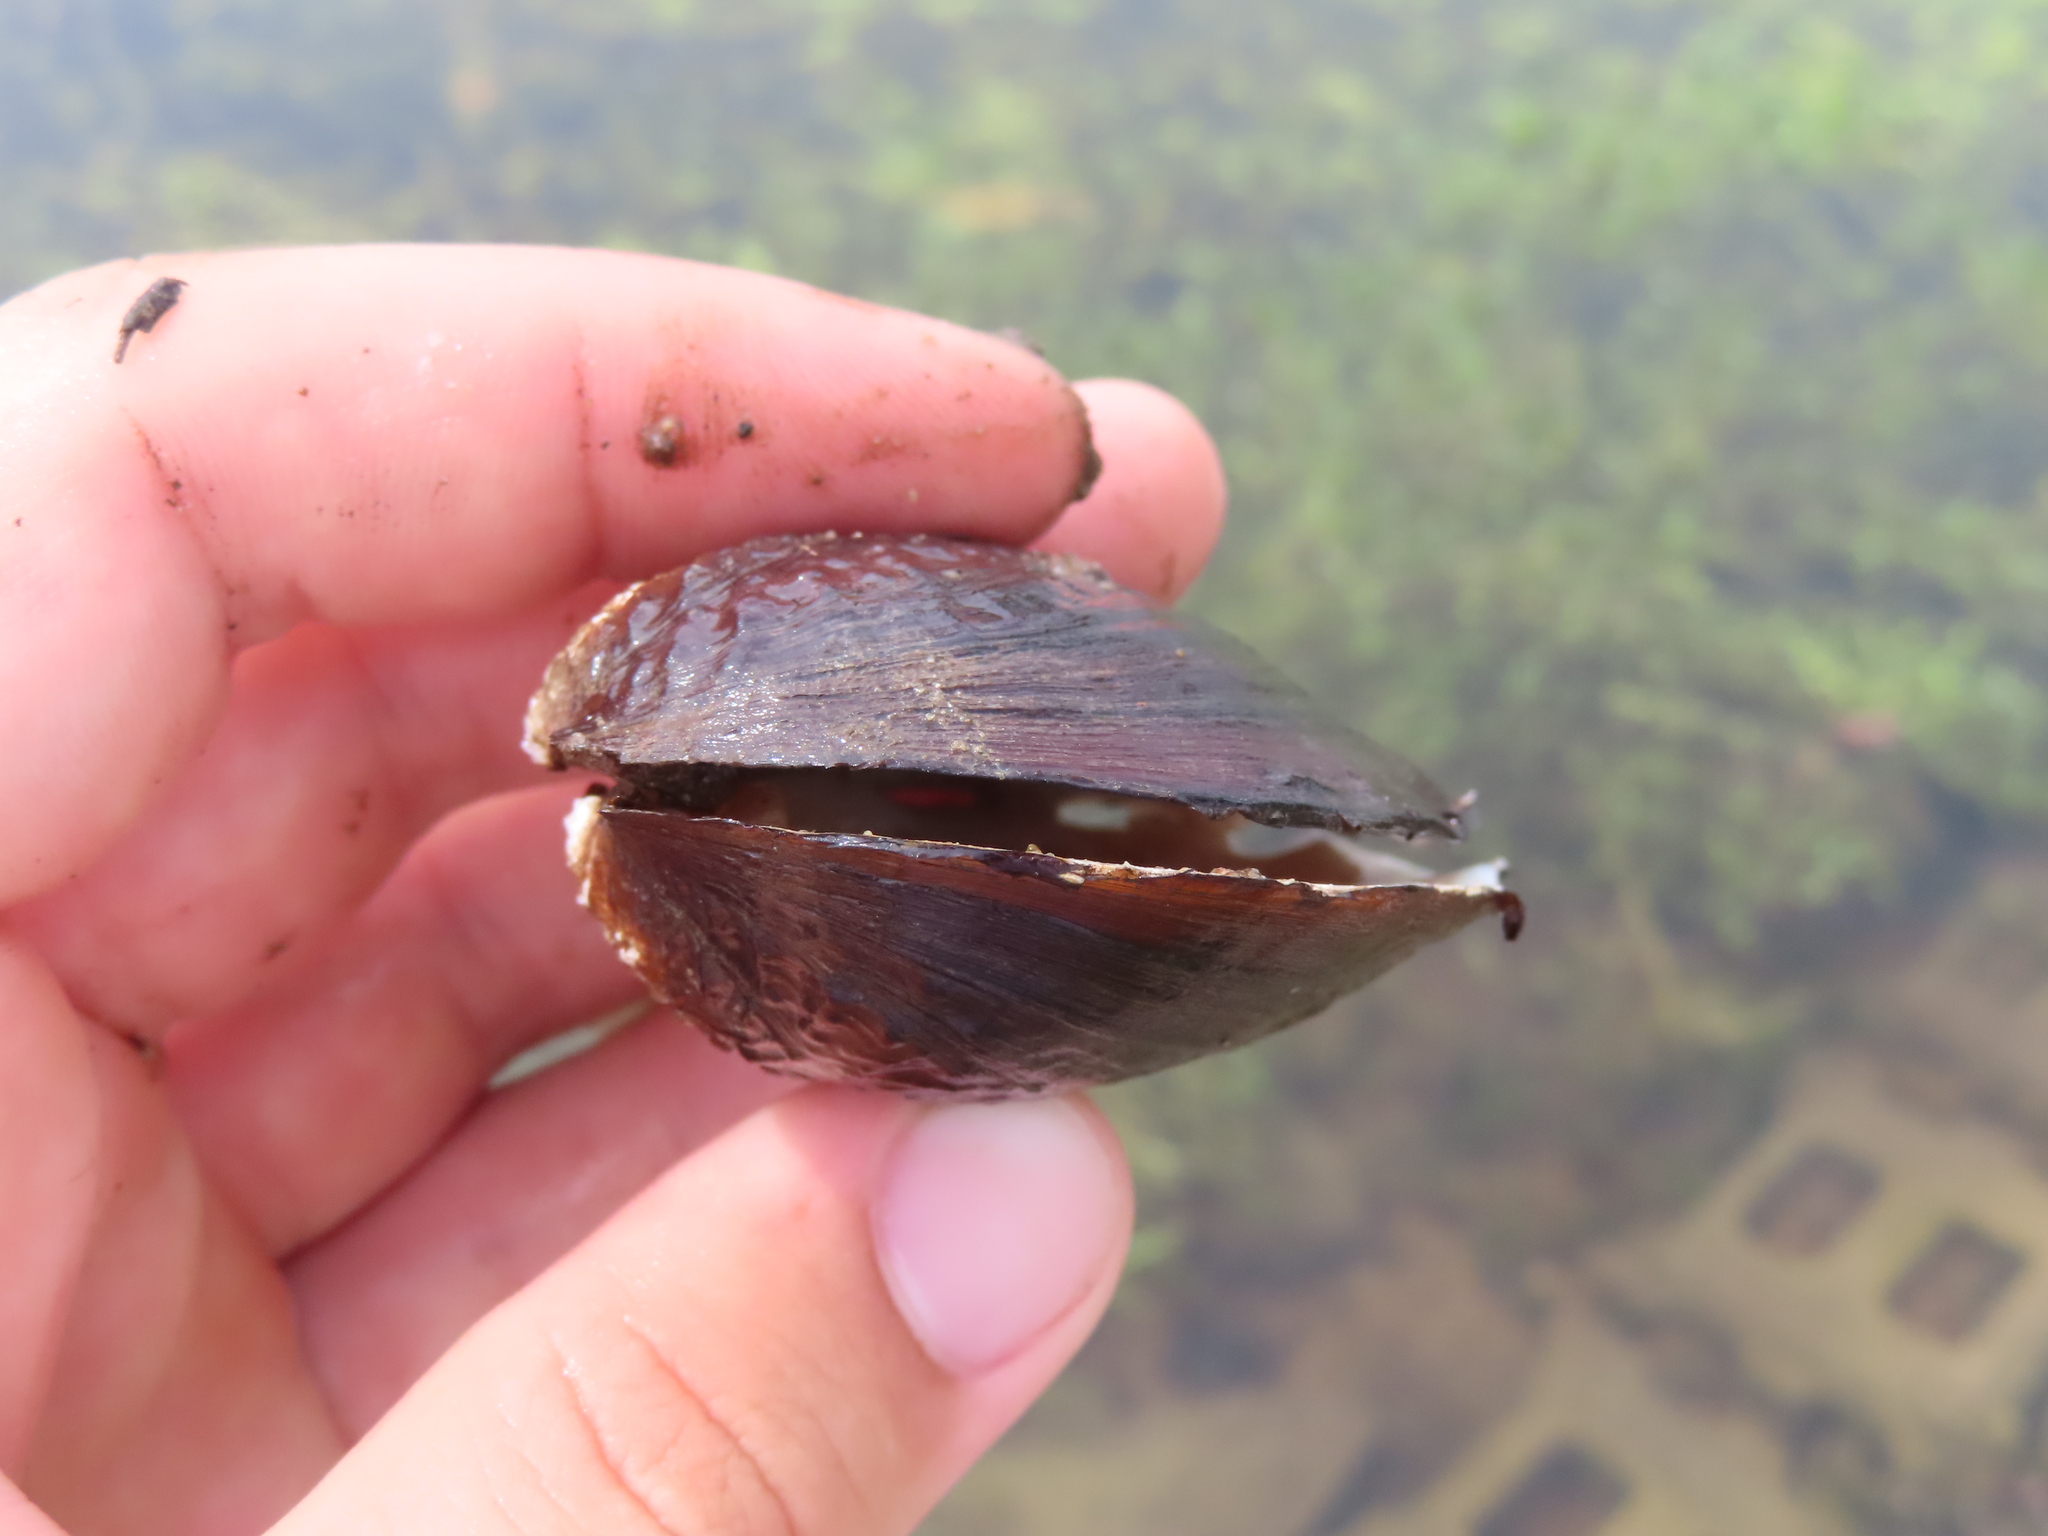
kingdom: Animalia
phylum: Mollusca
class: Bivalvia
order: Unionida
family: Unionidae
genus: Megalonaias
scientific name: Megalonaias nervosa
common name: Washboard
